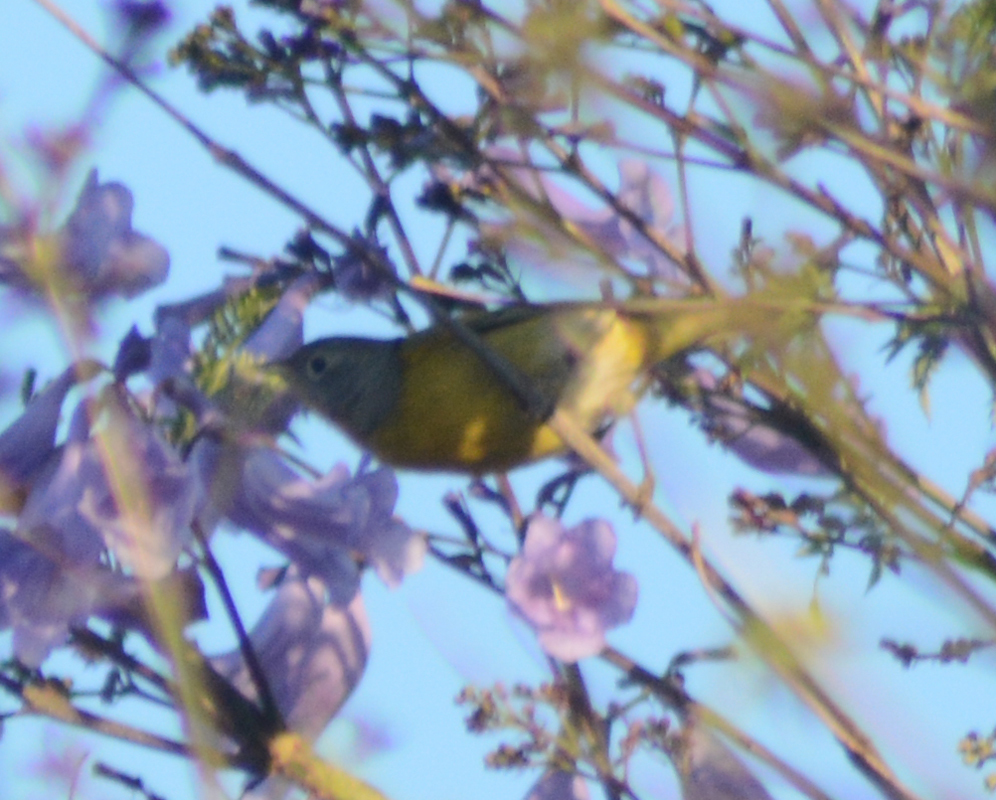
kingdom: Animalia
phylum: Chordata
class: Aves
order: Passeriformes
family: Parulidae
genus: Leiothlypis
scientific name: Leiothlypis ruficapilla
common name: Nashville warbler
